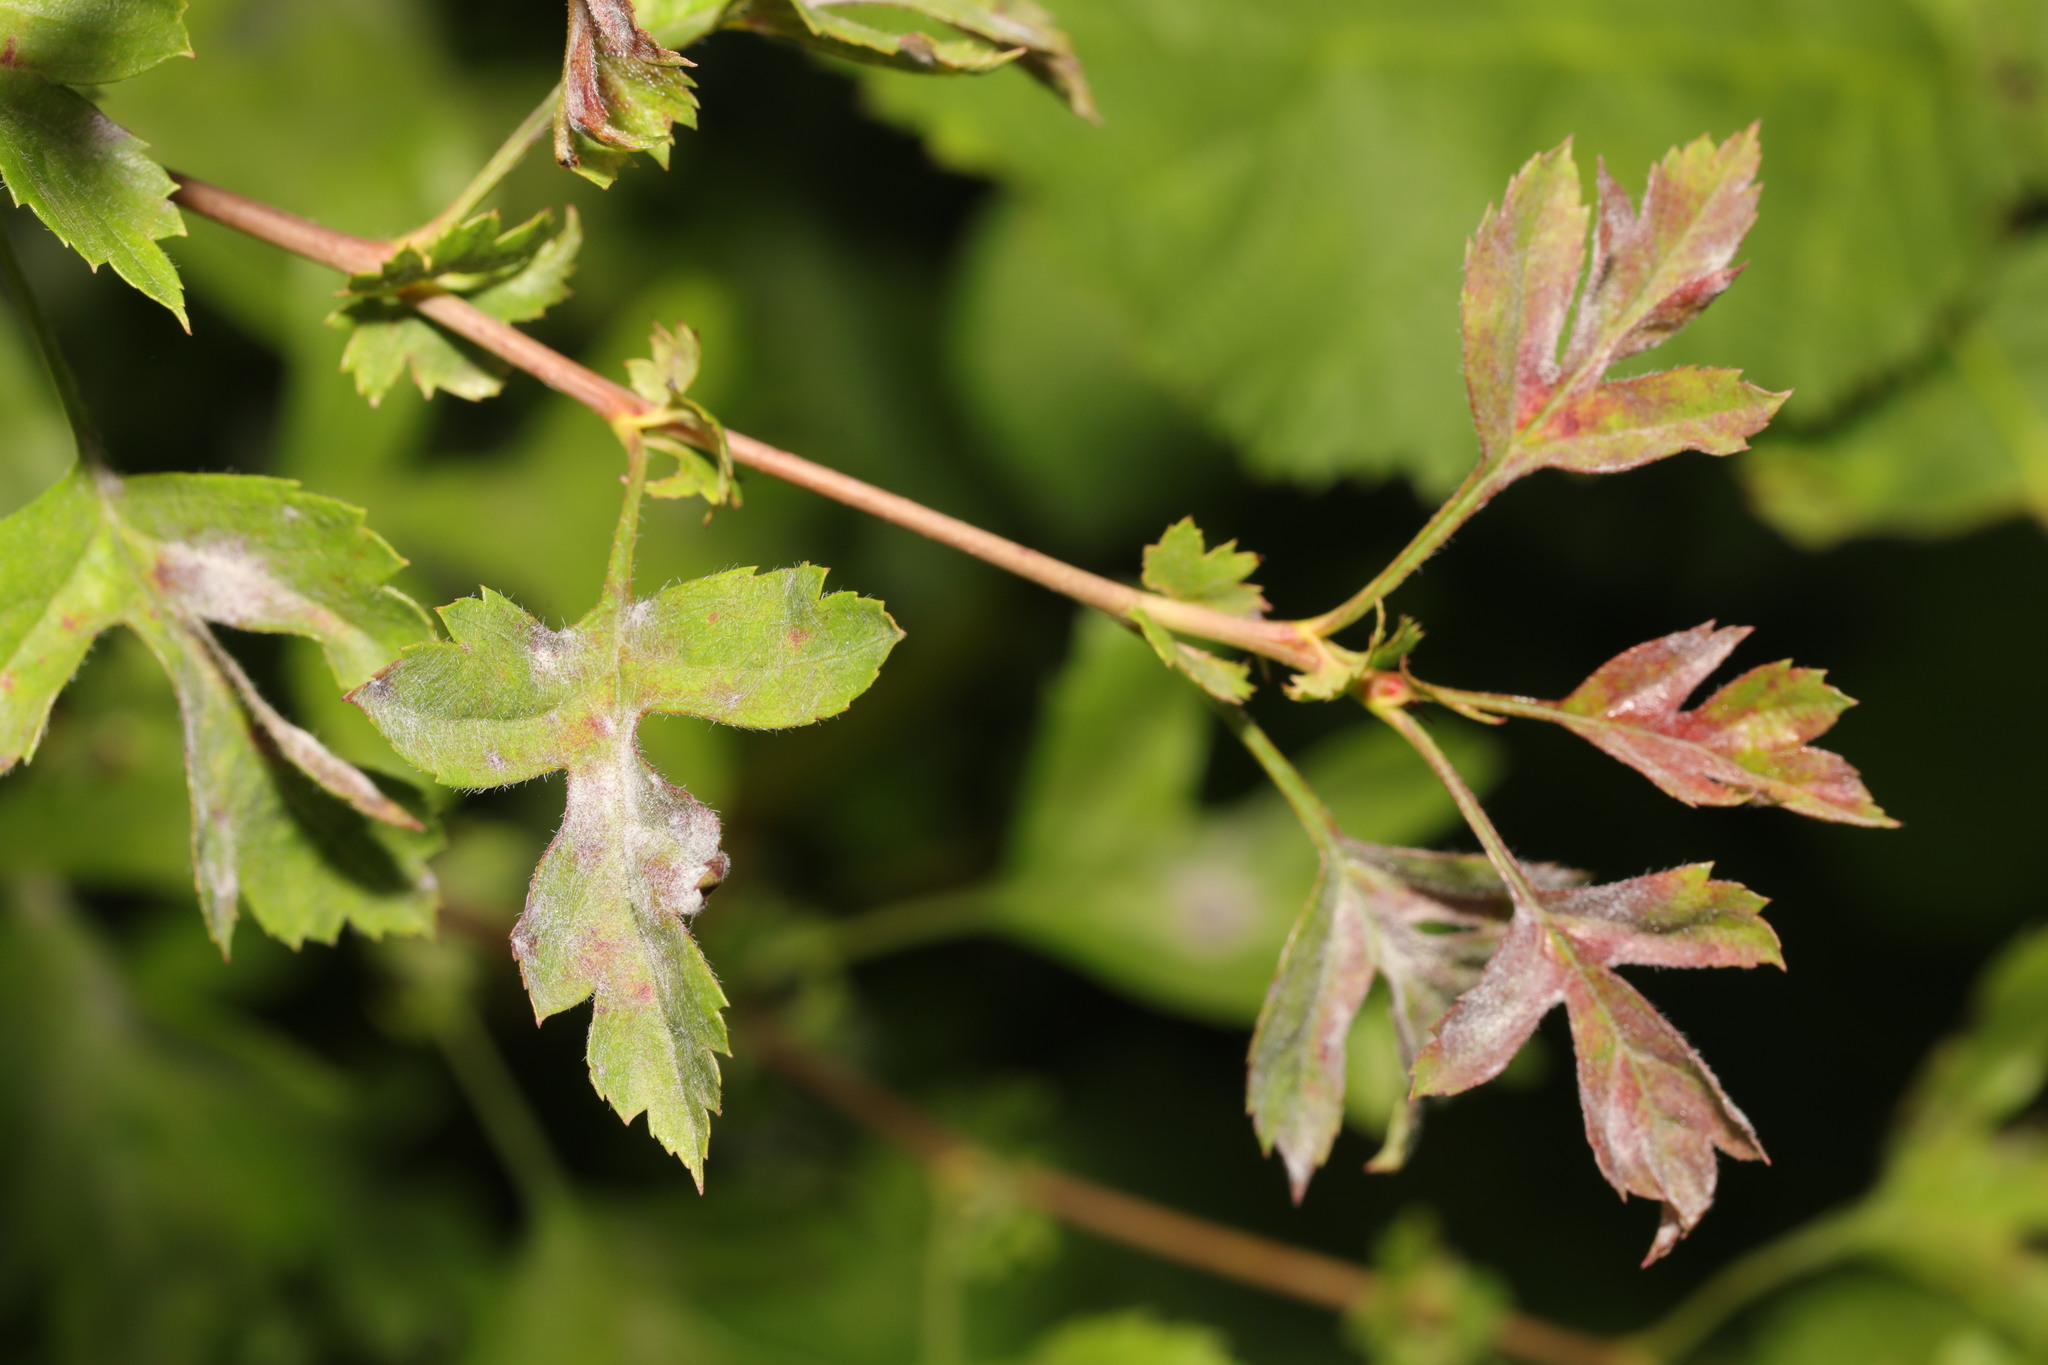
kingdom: Fungi
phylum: Ascomycota
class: Leotiomycetes
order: Helotiales
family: Erysiphaceae
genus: Podosphaera
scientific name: Podosphaera clandestina
